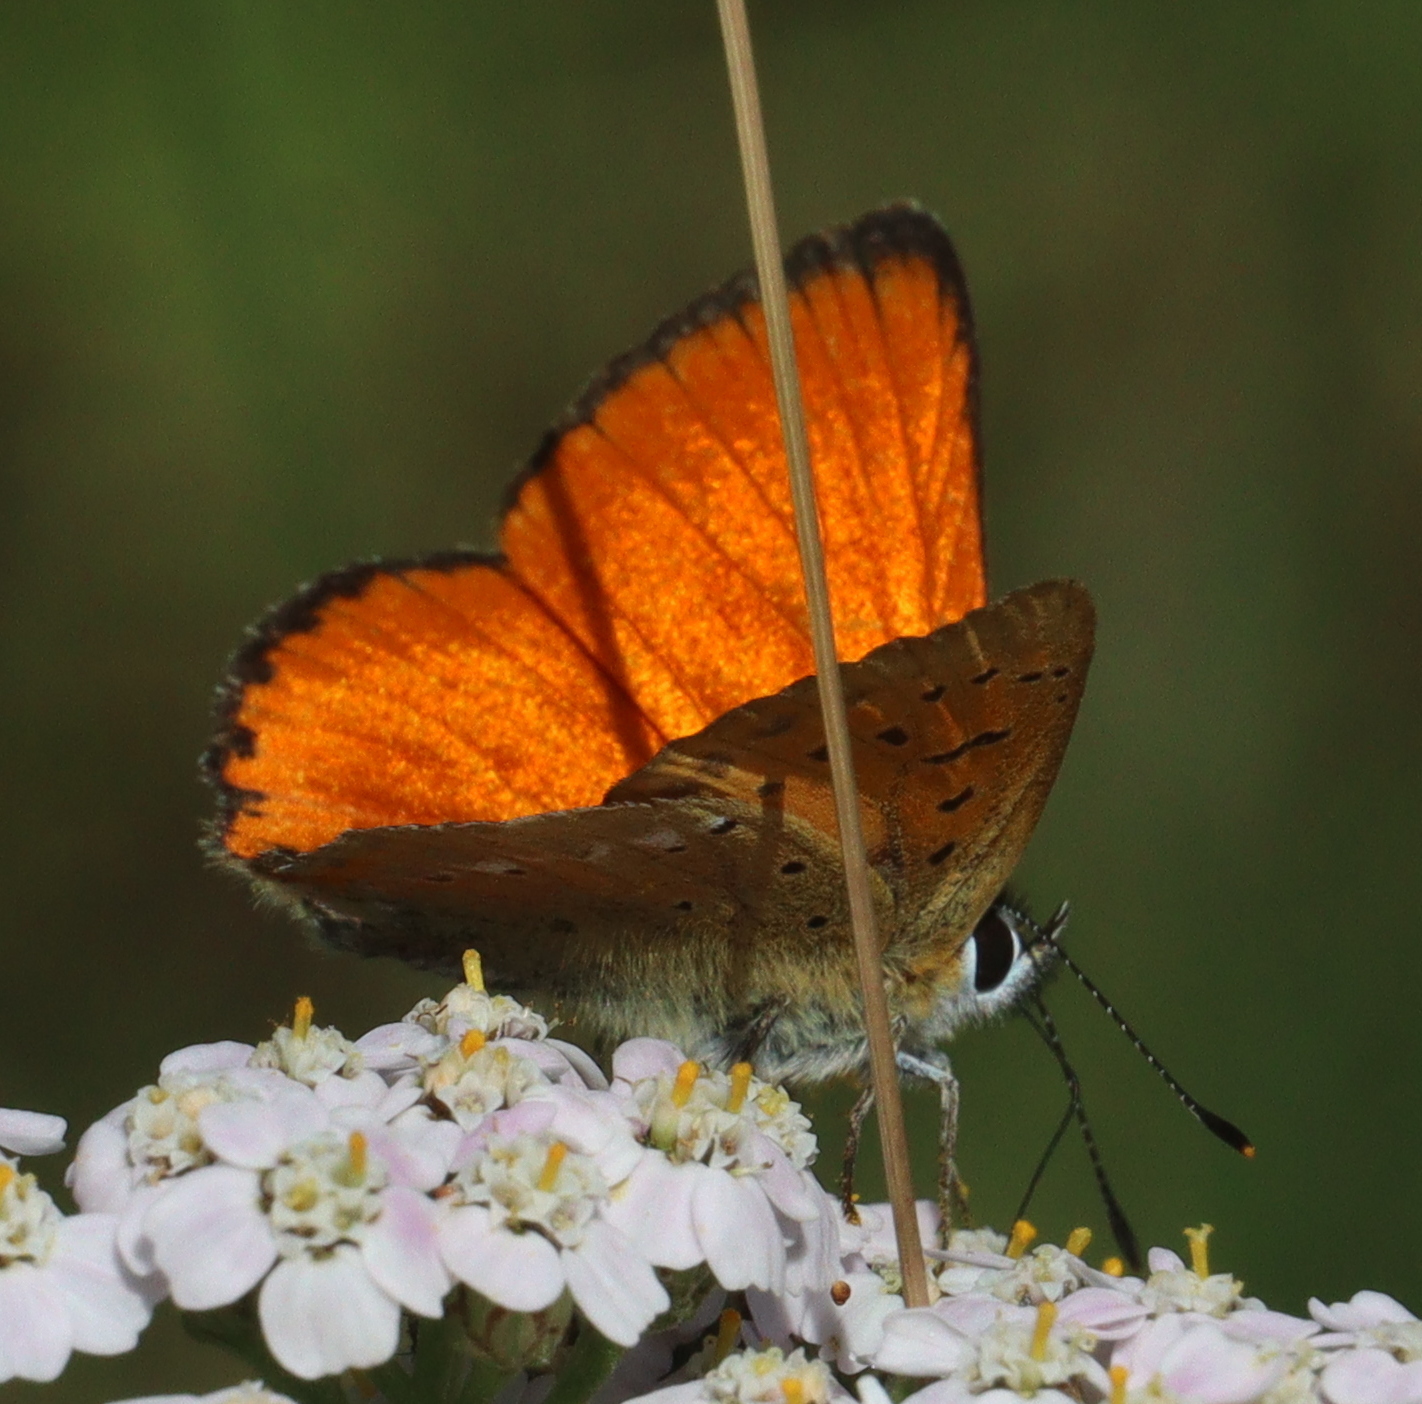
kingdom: Animalia
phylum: Arthropoda
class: Insecta
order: Lepidoptera
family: Lycaenidae
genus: Lycaena
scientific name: Lycaena virgaureae
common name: Scarce copper
